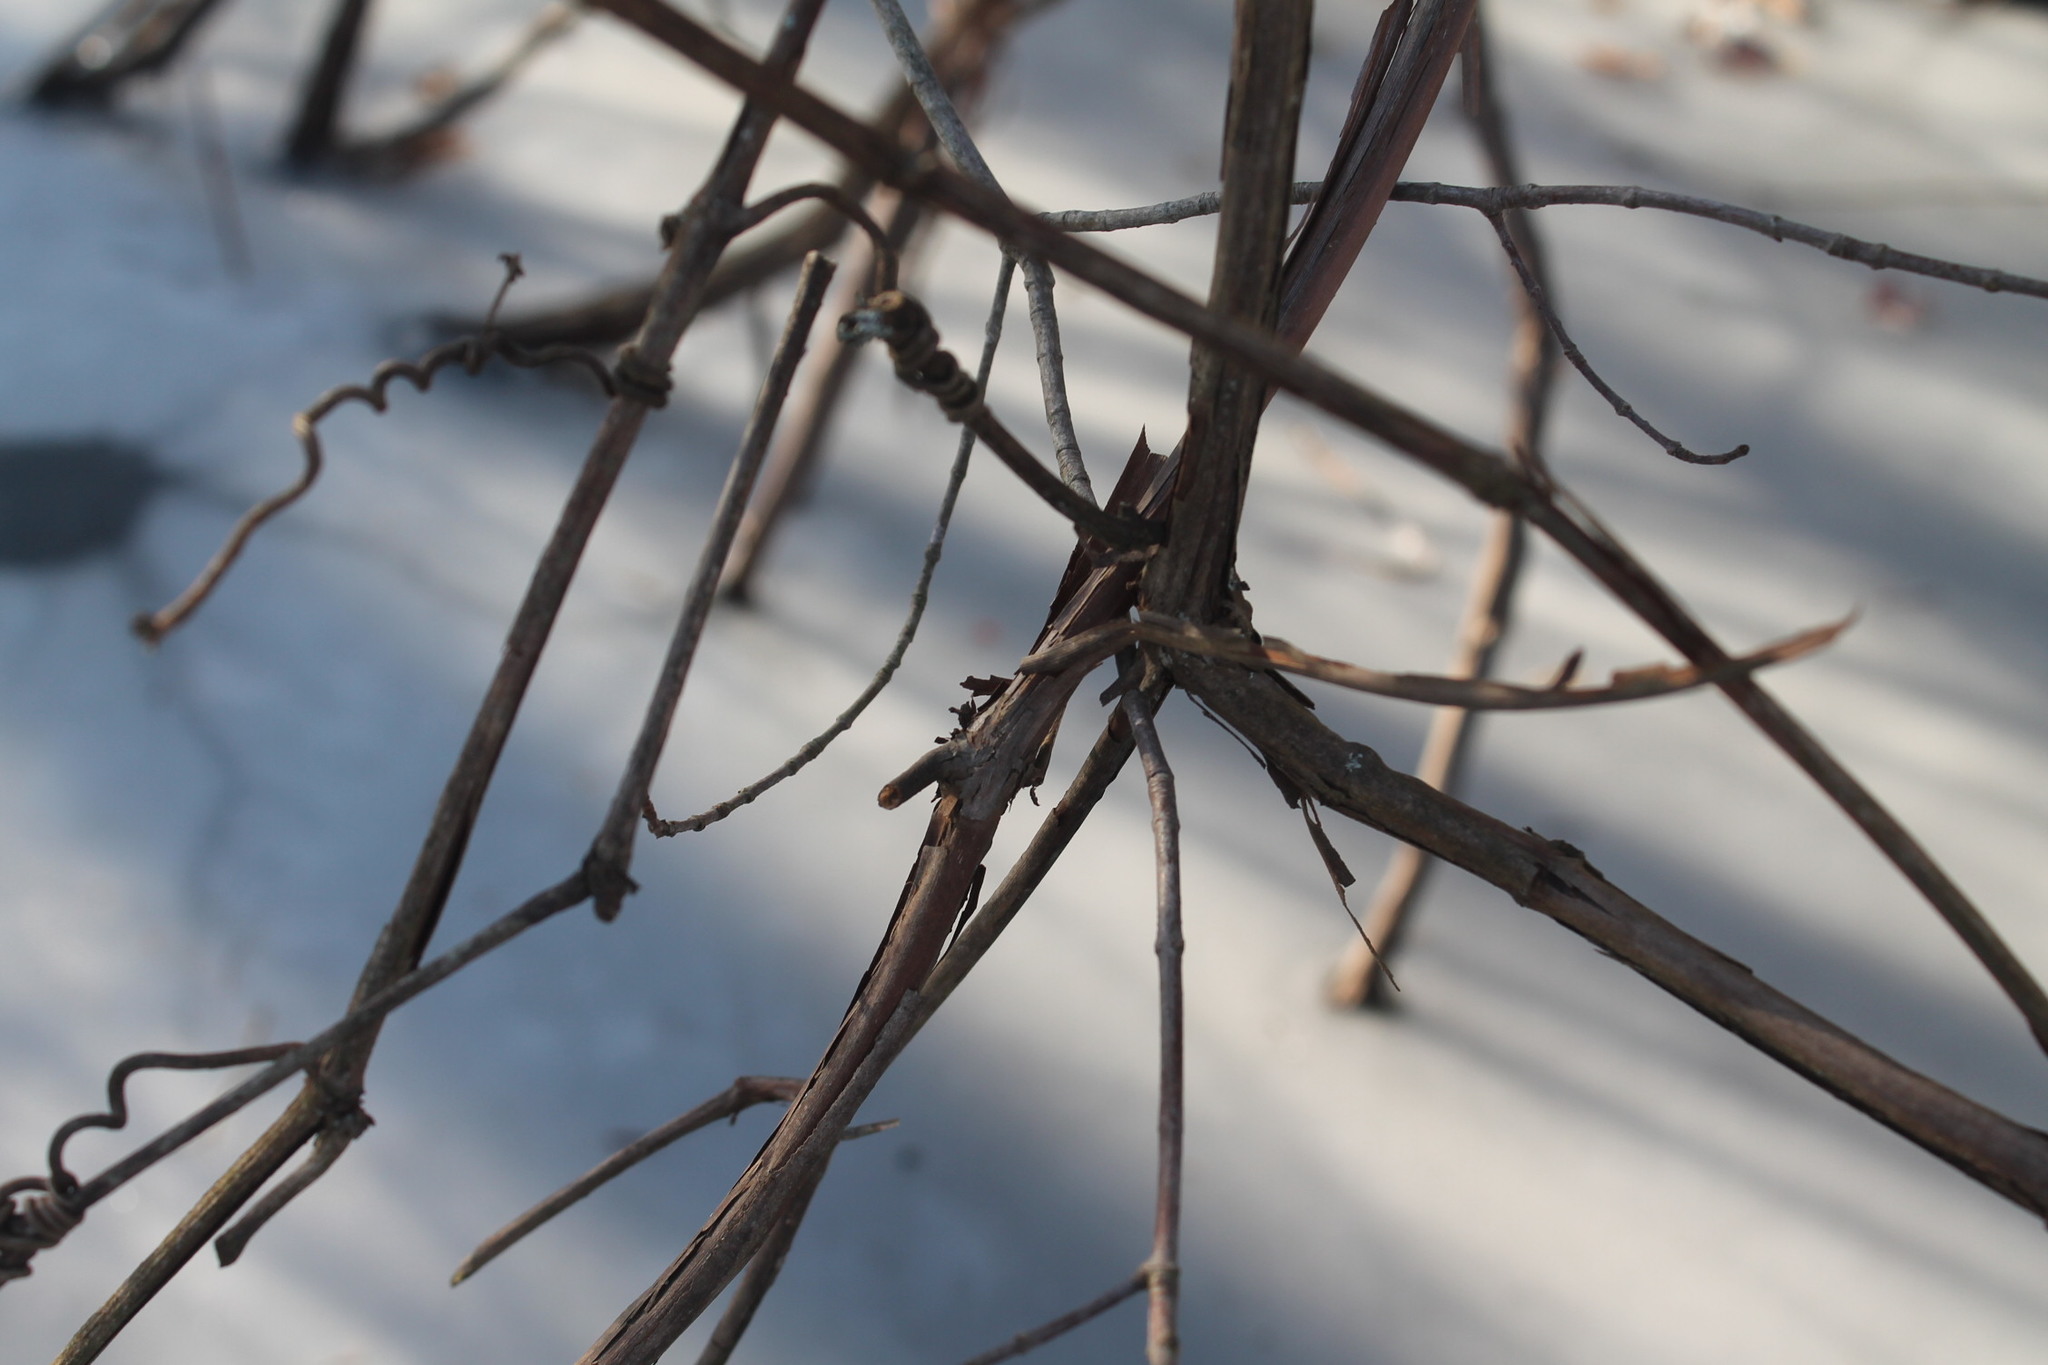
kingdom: Plantae
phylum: Tracheophyta
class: Magnoliopsida
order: Vitales
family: Vitaceae
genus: Vitis
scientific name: Vitis
